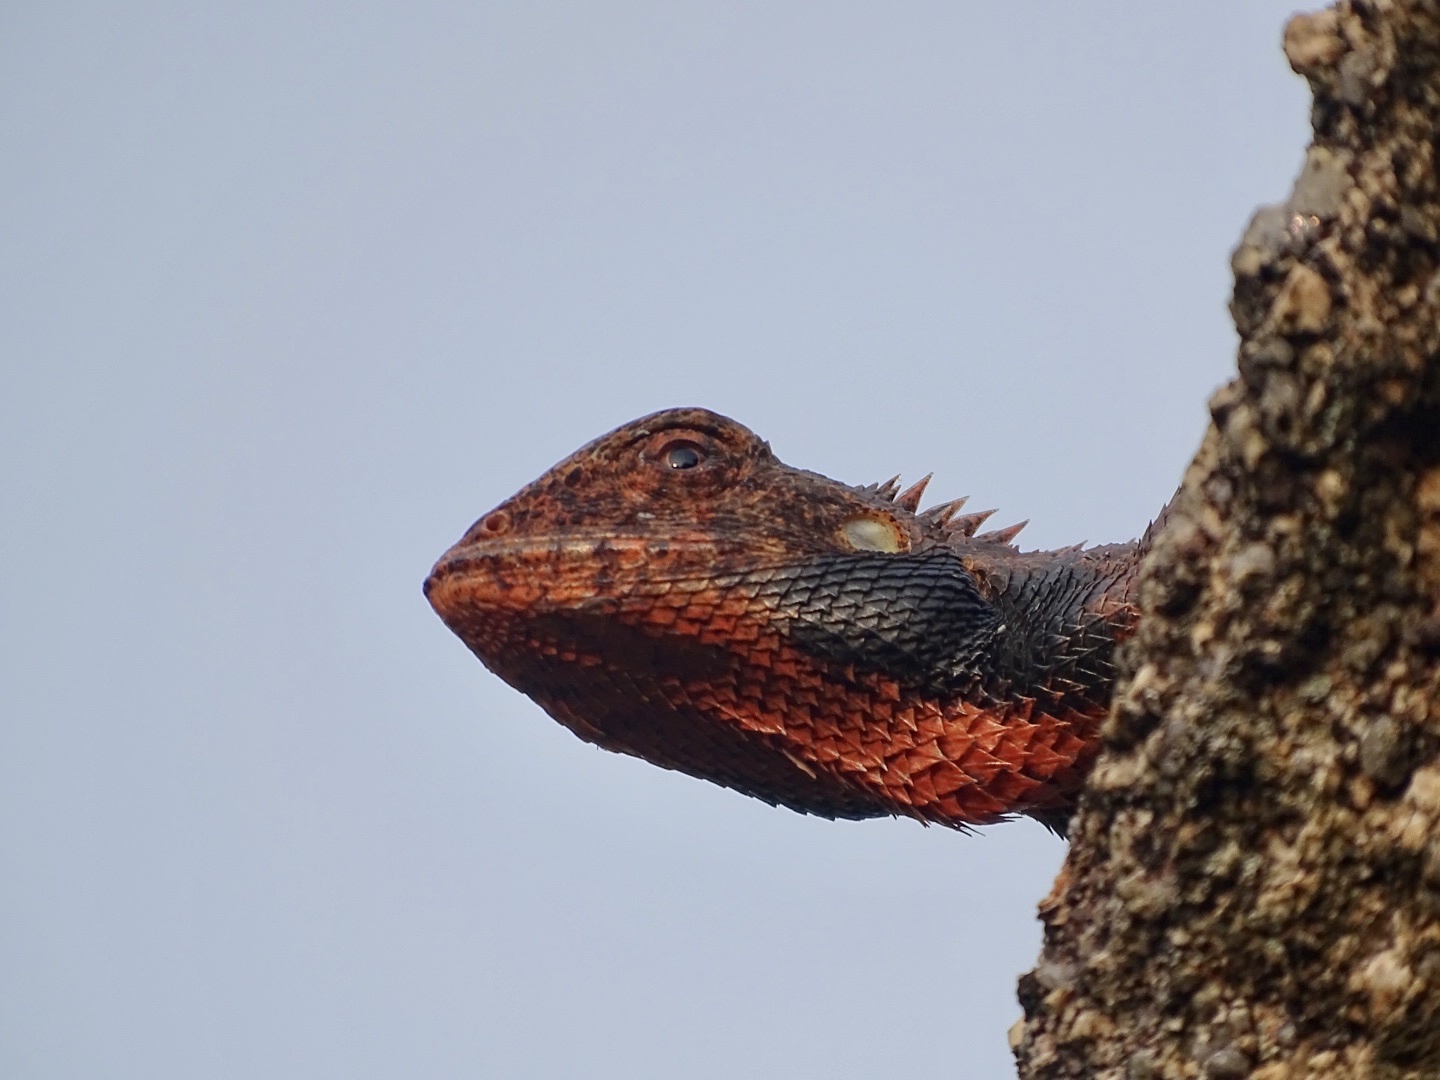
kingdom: Animalia
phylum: Chordata
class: Squamata
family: Agamidae
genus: Calotes
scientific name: Calotes versicolor
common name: Oriental garden lizard
